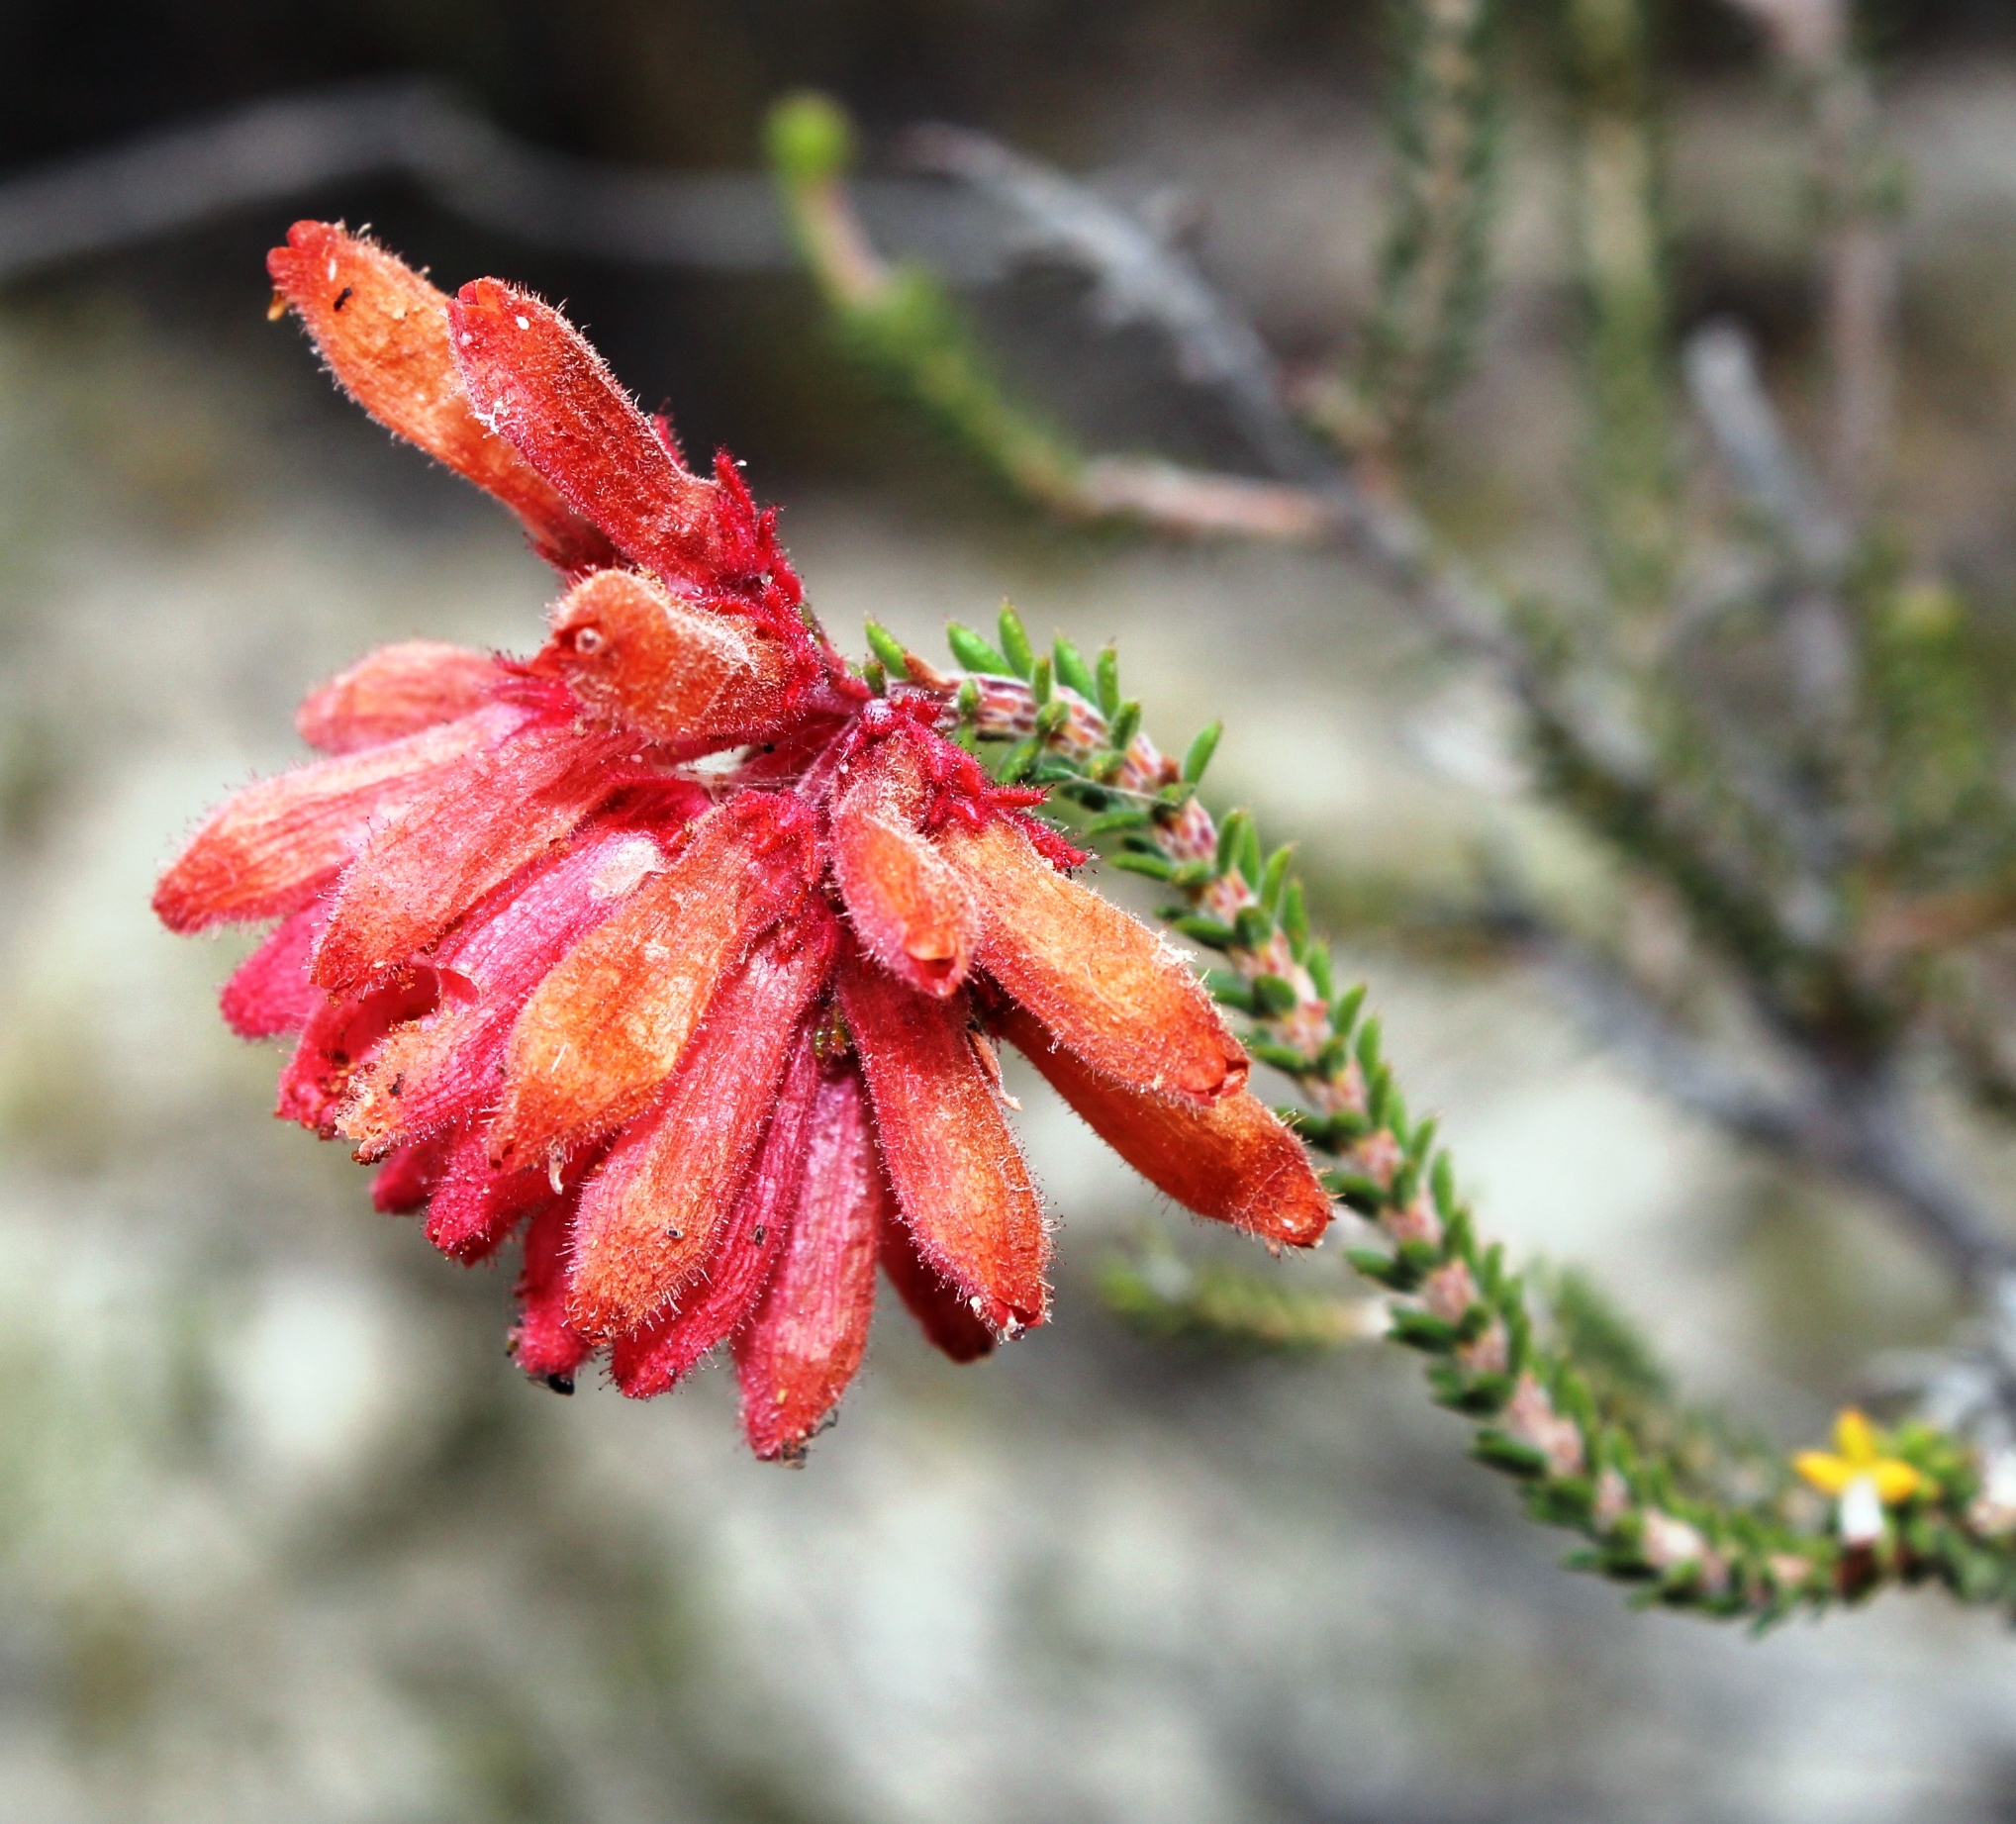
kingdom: Plantae
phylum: Tracheophyta
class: Magnoliopsida
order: Ericales
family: Ericaceae
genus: Erica
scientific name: Erica cerinthoides
